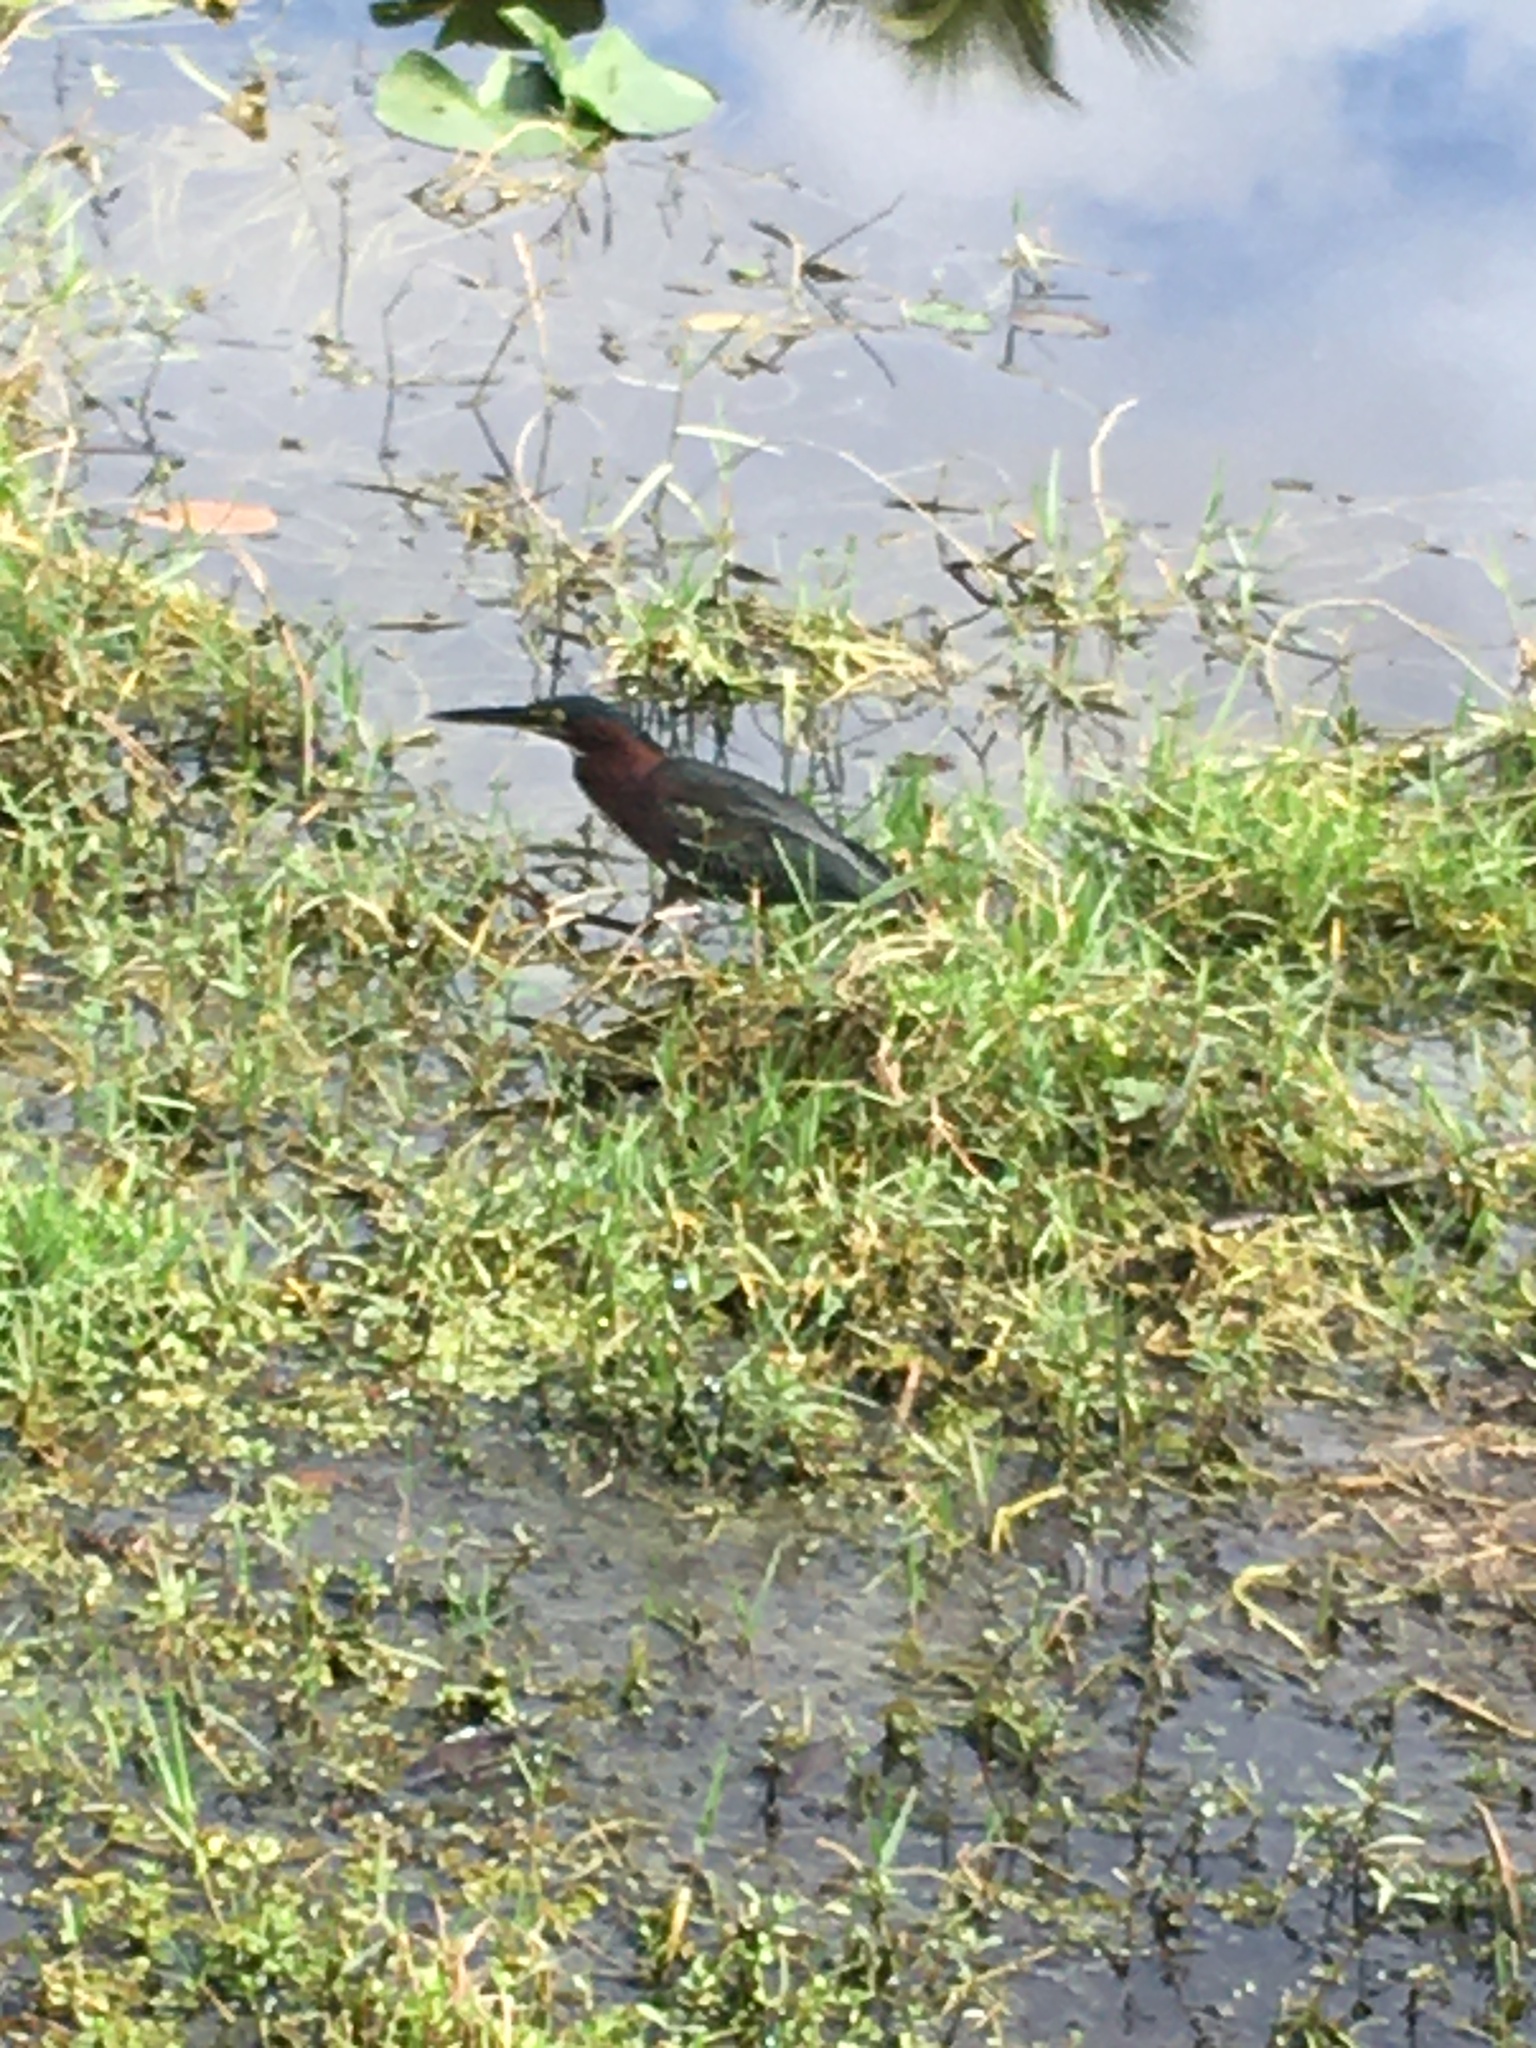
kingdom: Animalia
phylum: Chordata
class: Aves
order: Pelecaniformes
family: Ardeidae
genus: Butorides
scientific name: Butorides virescens
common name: Green heron
